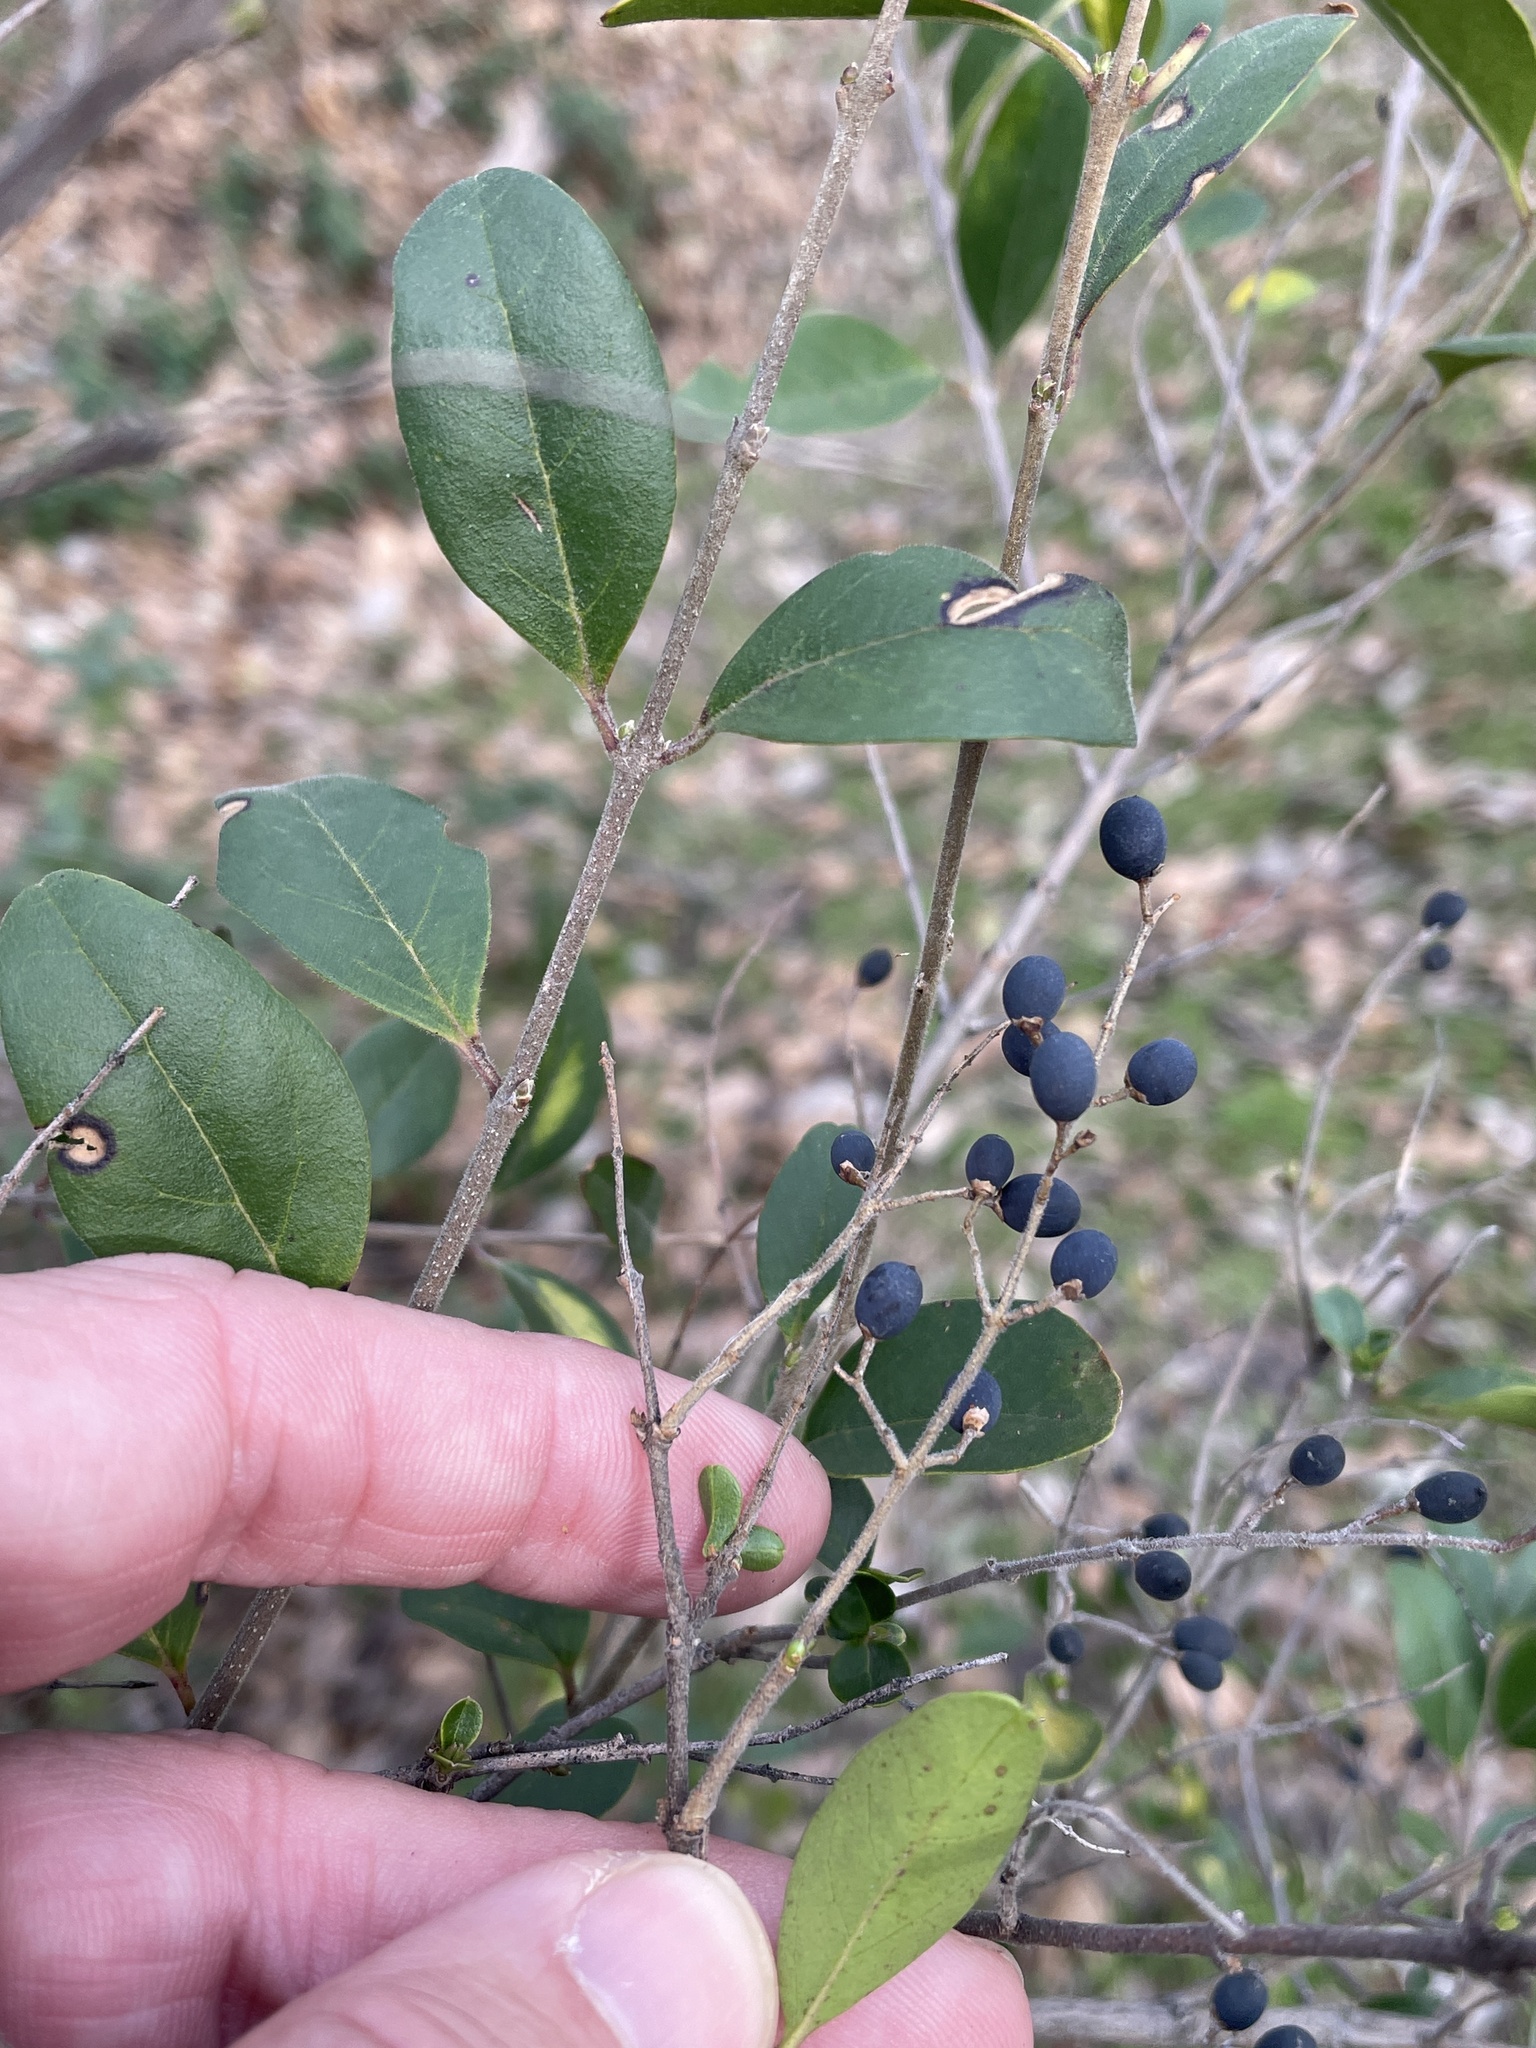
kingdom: Plantae
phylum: Tracheophyta
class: Magnoliopsida
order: Lamiales
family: Oleaceae
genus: Ligustrum
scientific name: Ligustrum sinense
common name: Chinese privet
